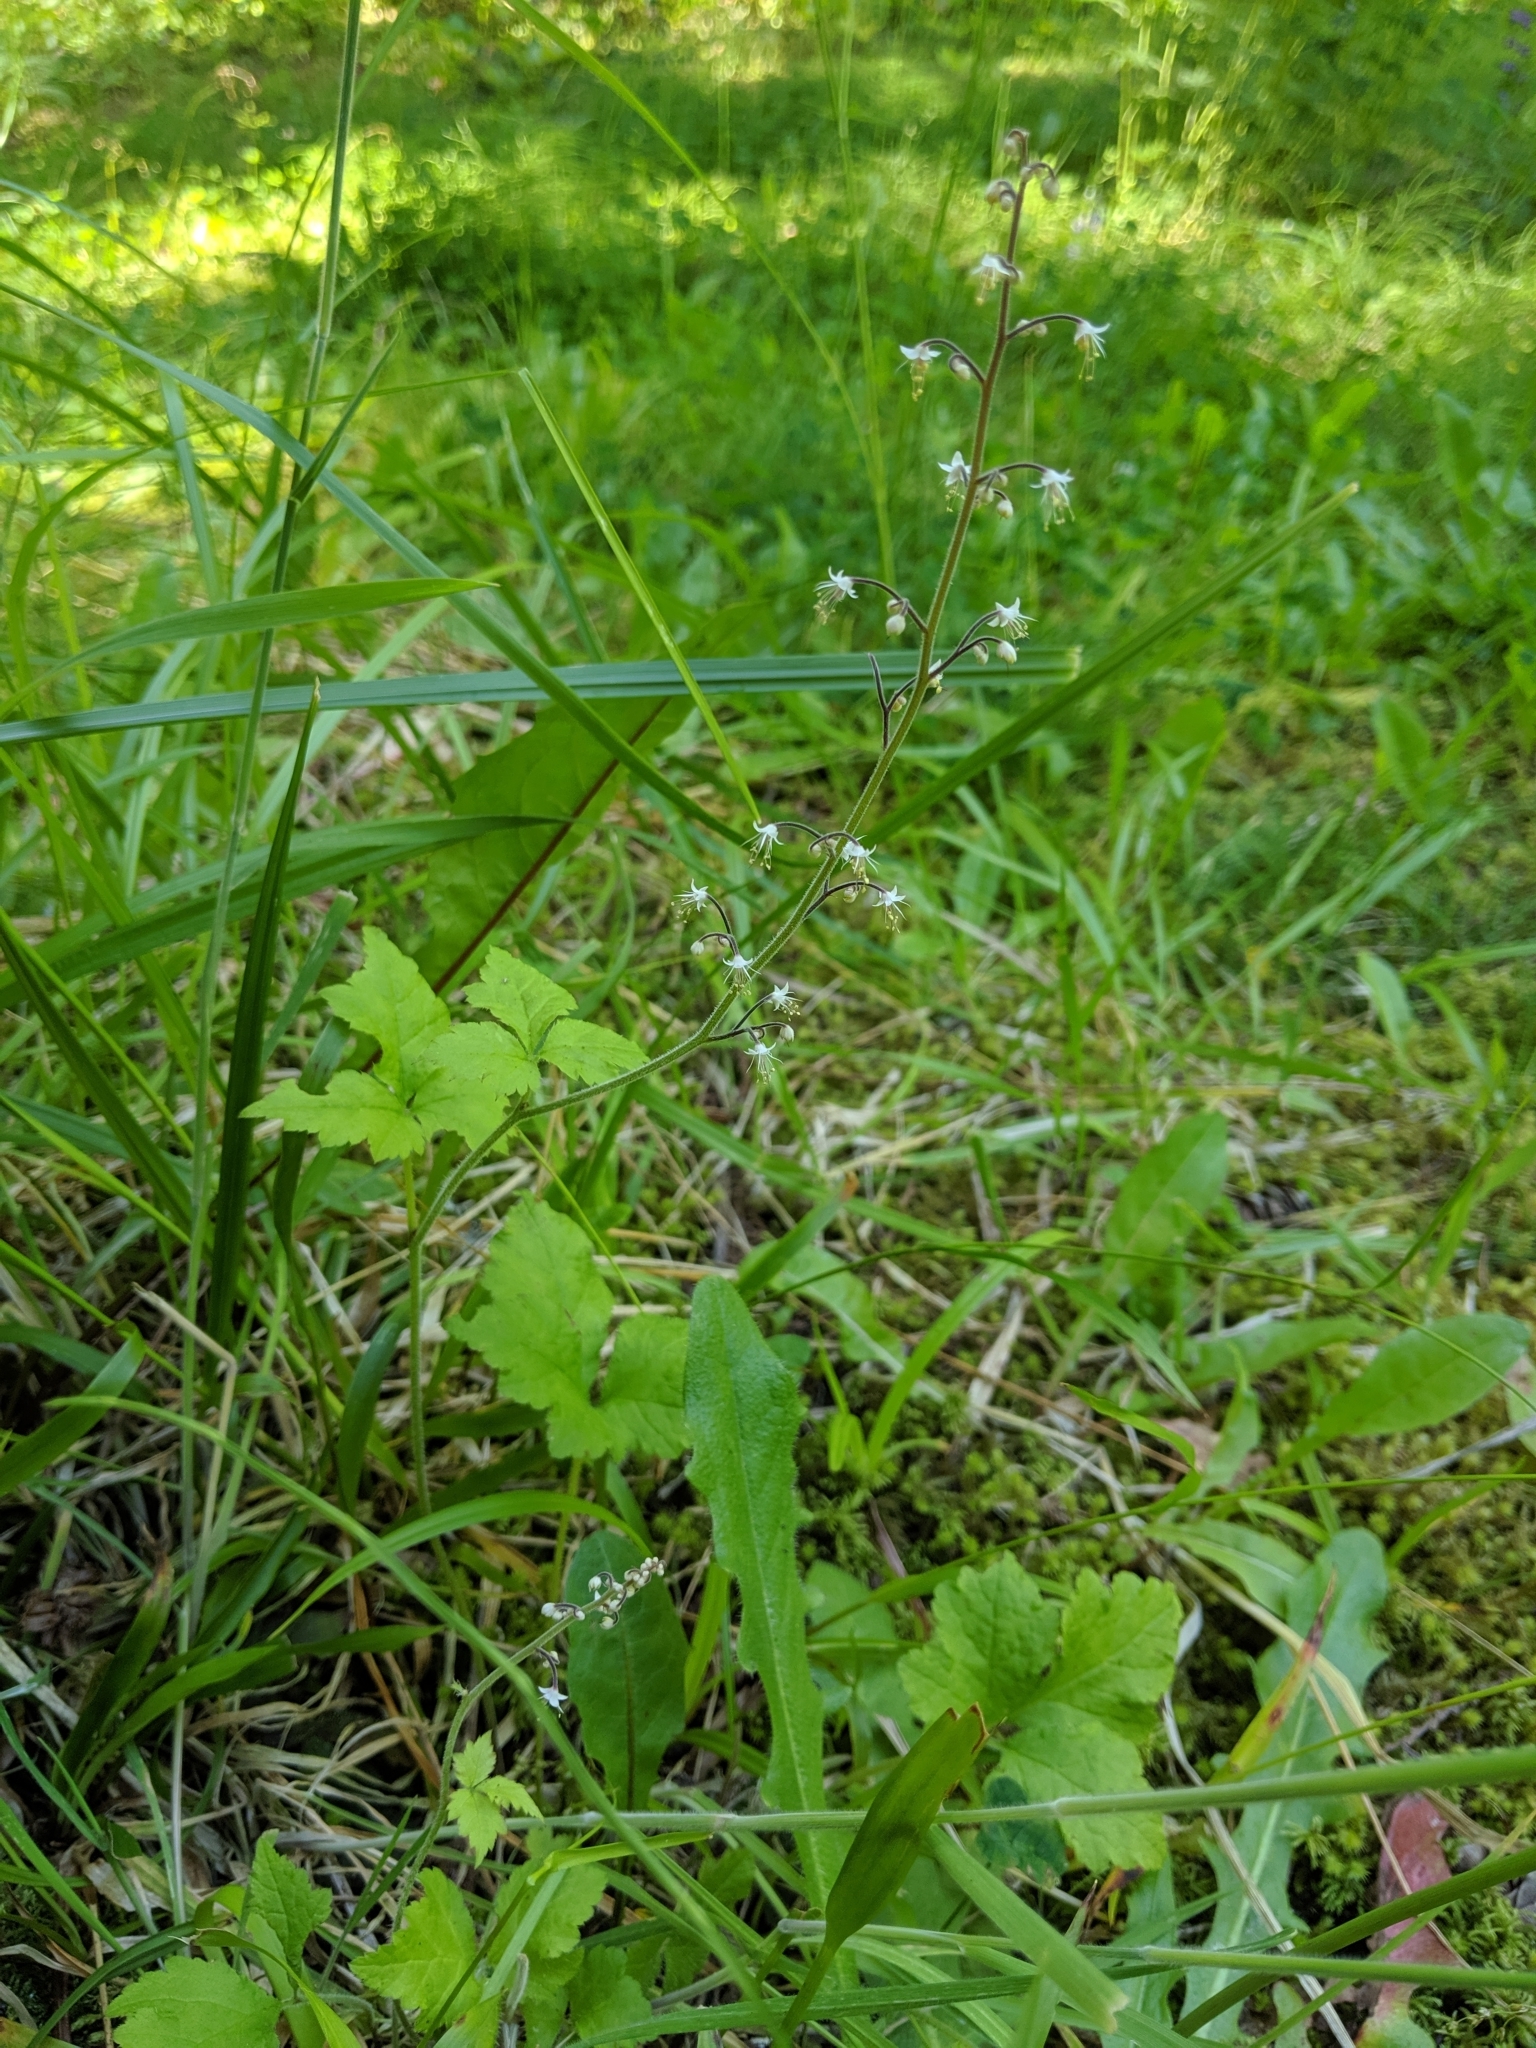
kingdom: Plantae
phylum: Tracheophyta
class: Magnoliopsida
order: Saxifragales
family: Saxifragaceae
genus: Tiarella
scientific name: Tiarella trifoliata
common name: Sugar-scoop
